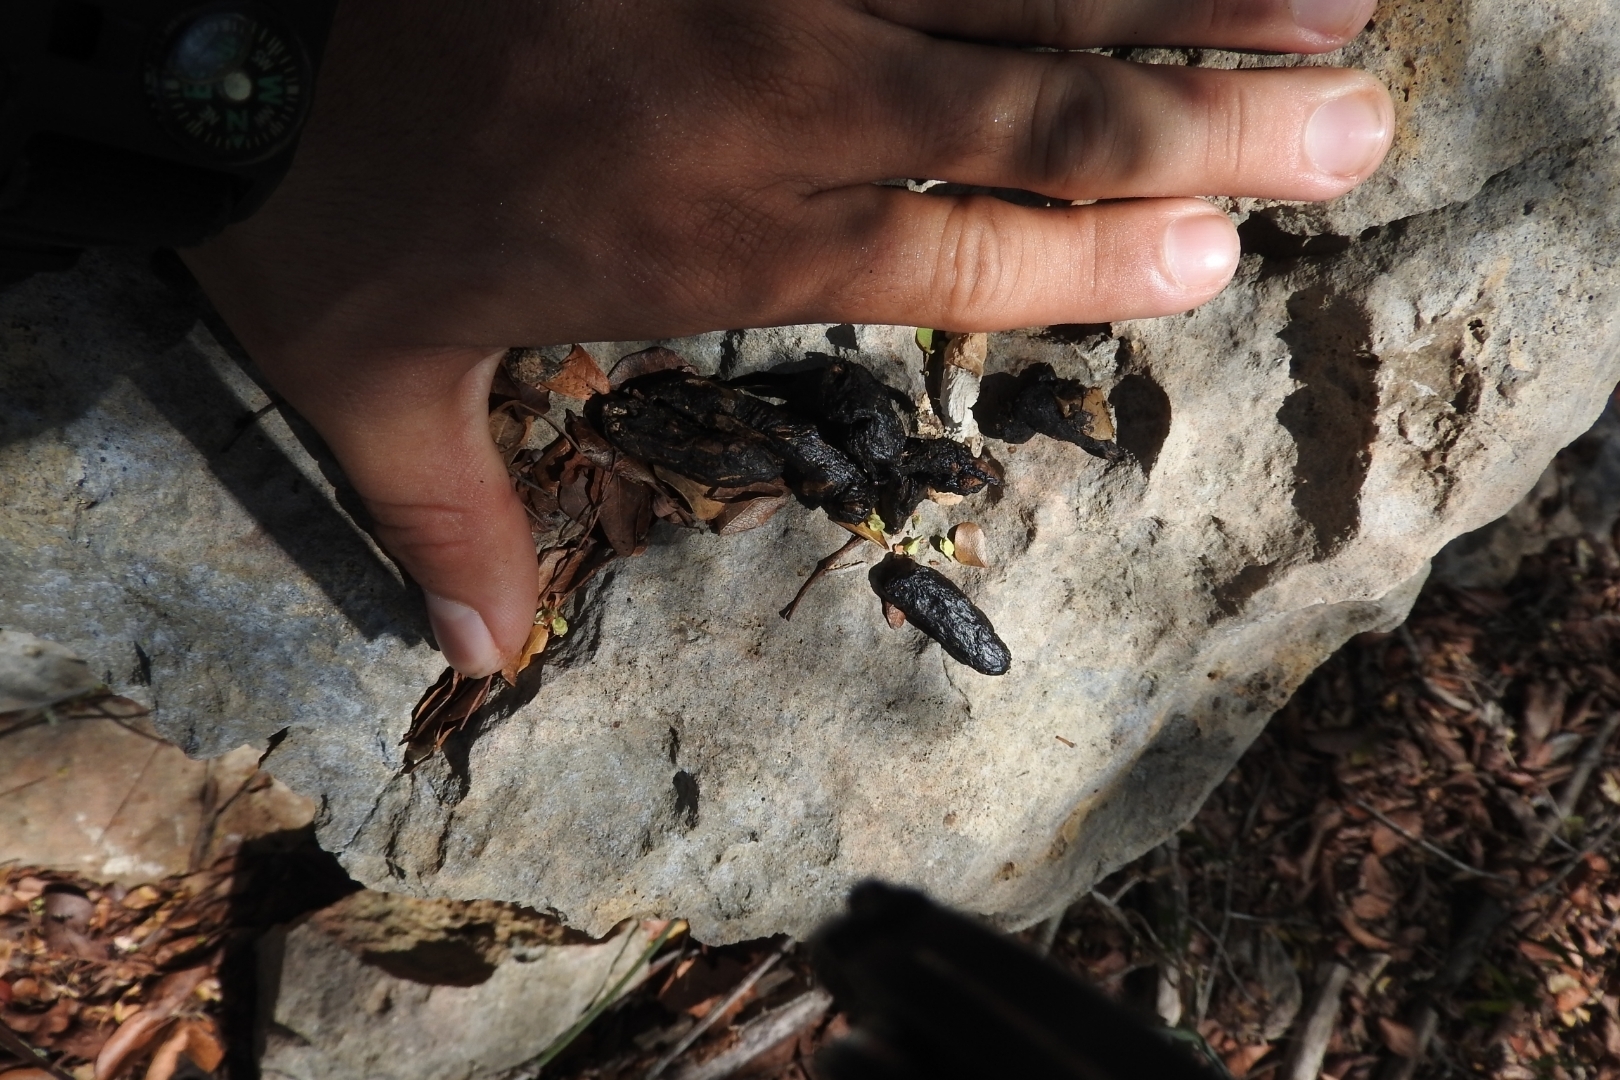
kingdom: Animalia
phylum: Chordata
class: Mammalia
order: Carnivora
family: Canidae
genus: Urocyon
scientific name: Urocyon cinereoargenteus
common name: Gray fox
